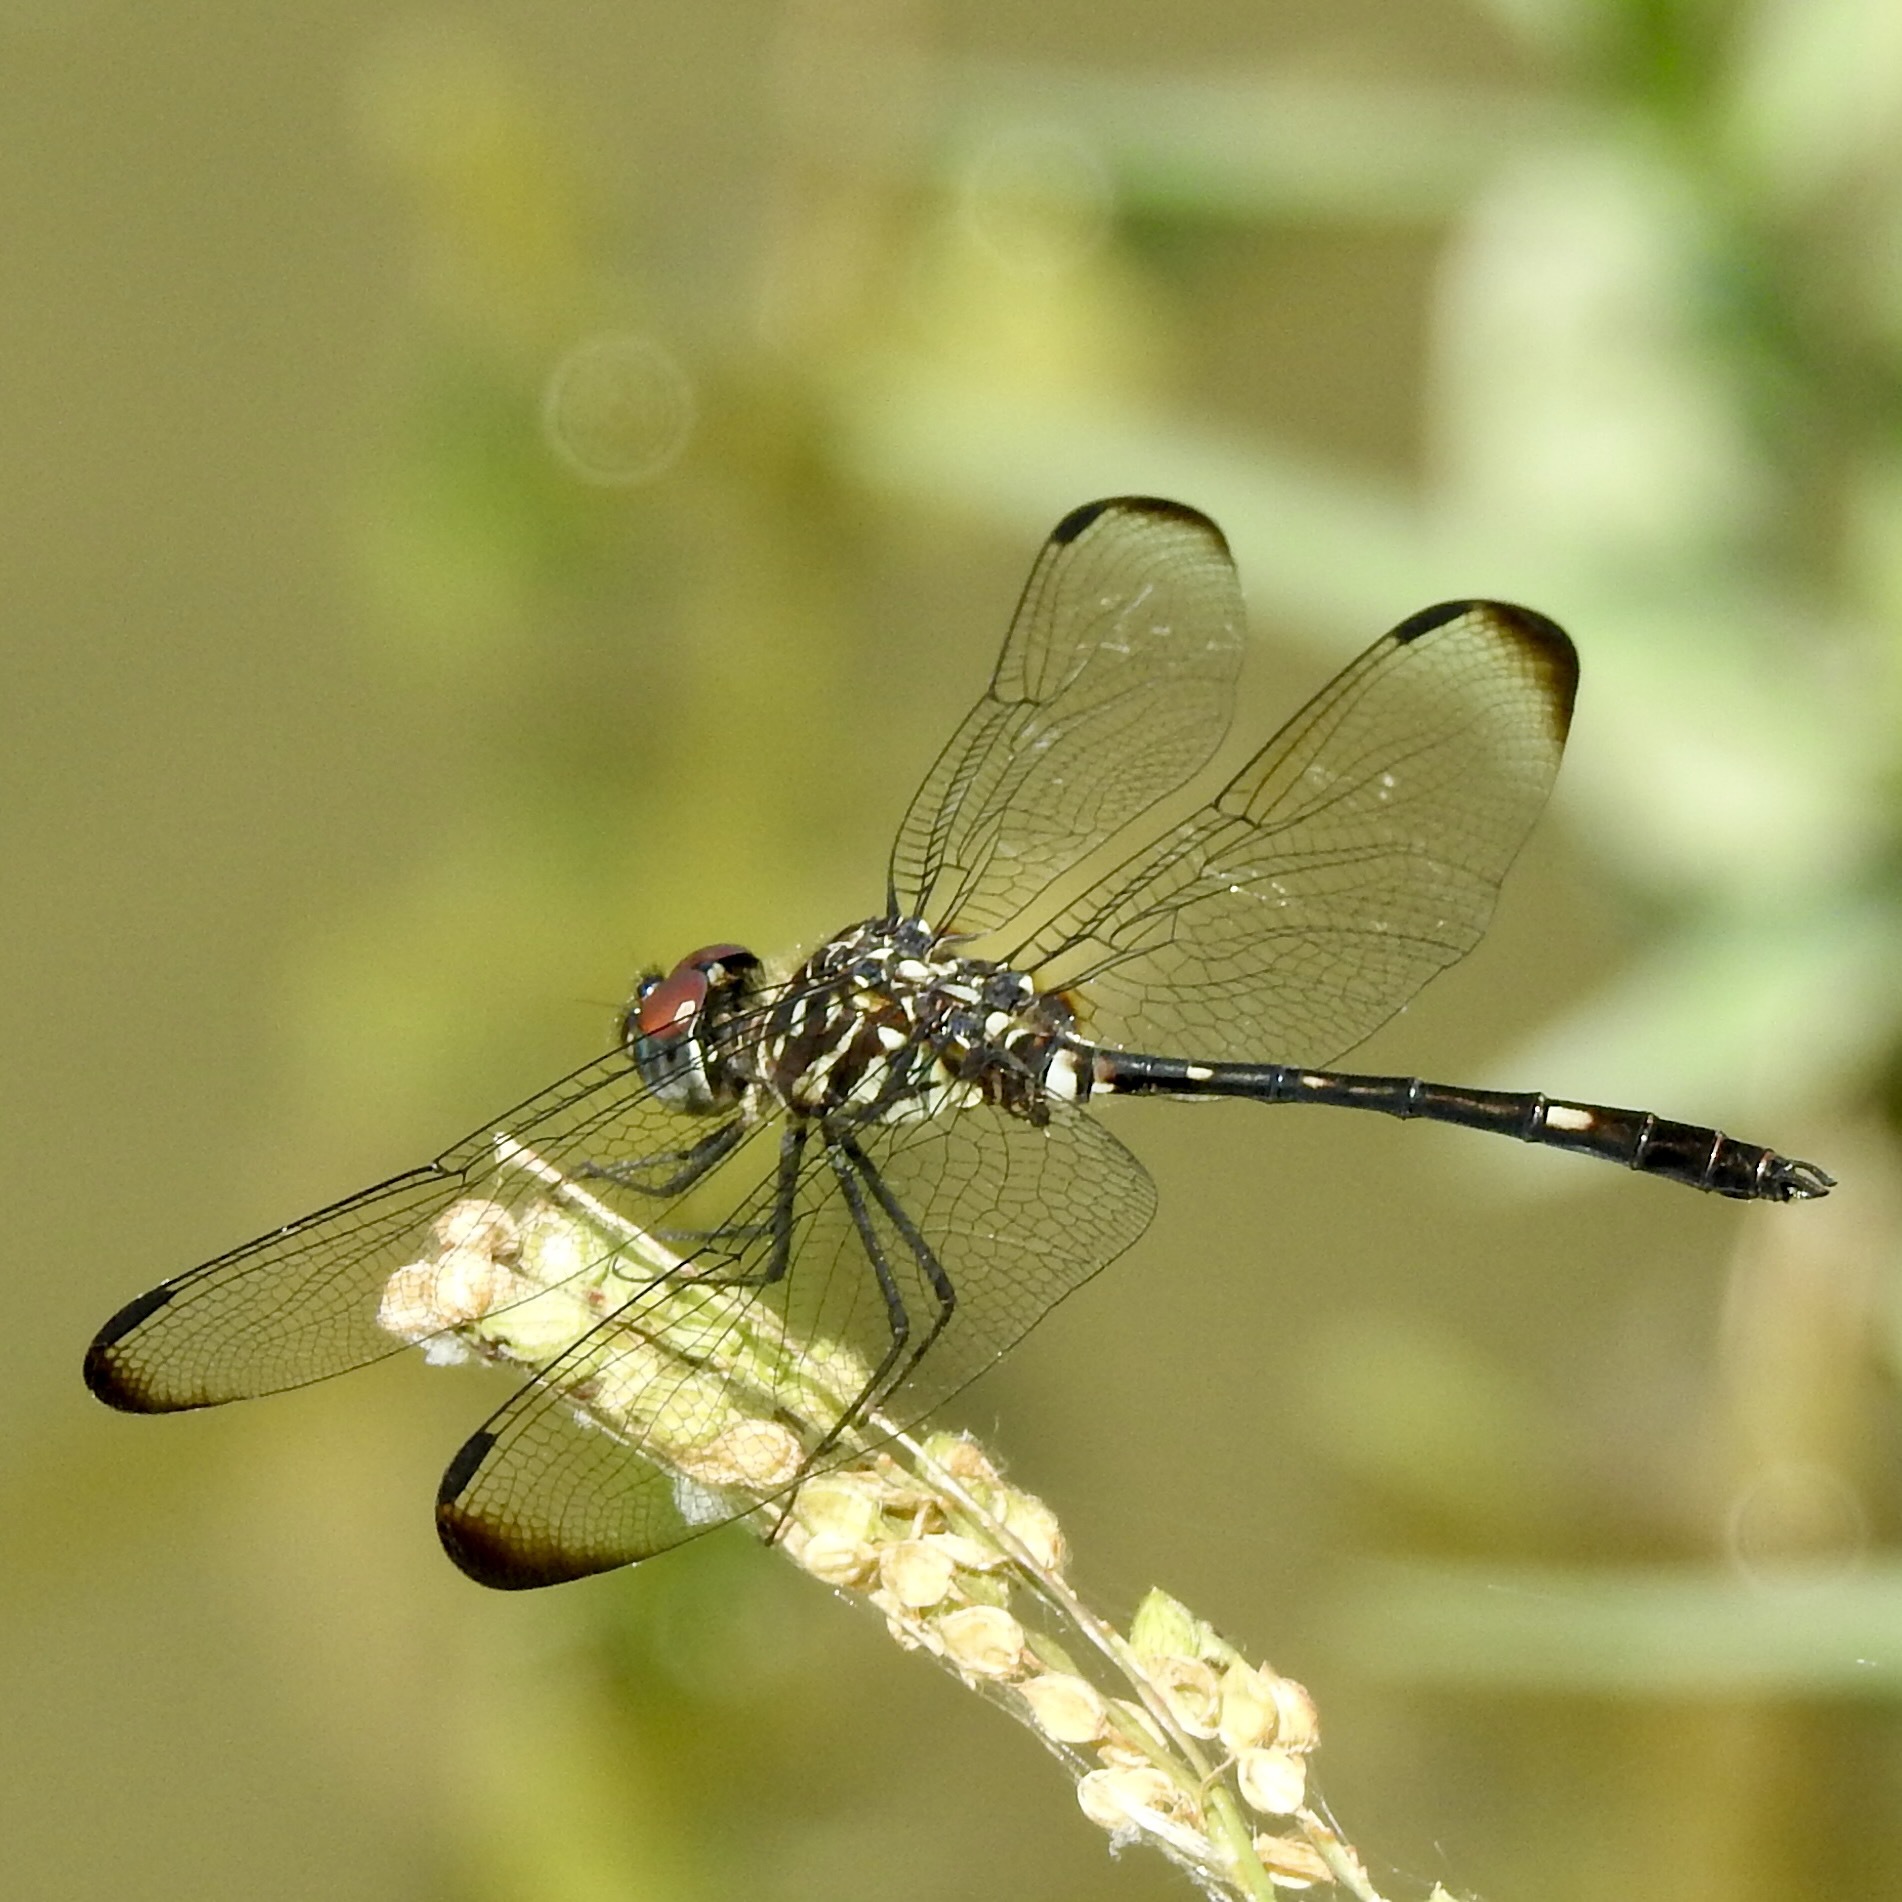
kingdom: Animalia
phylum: Arthropoda
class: Insecta
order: Odonata
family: Libellulidae
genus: Dythemis
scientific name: Dythemis velox
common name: Swift setwing
